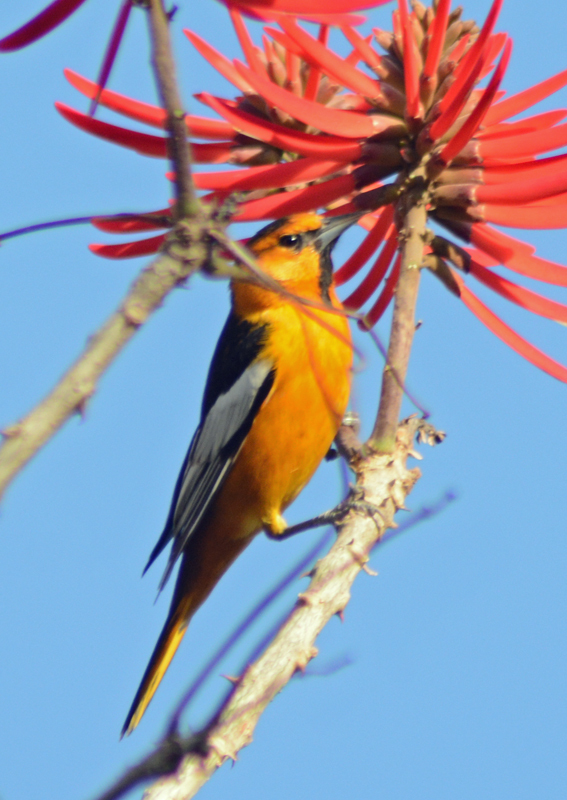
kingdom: Animalia
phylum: Chordata
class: Aves
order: Passeriformes
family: Icteridae
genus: Icterus
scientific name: Icterus bullockii
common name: Bullock's oriole
